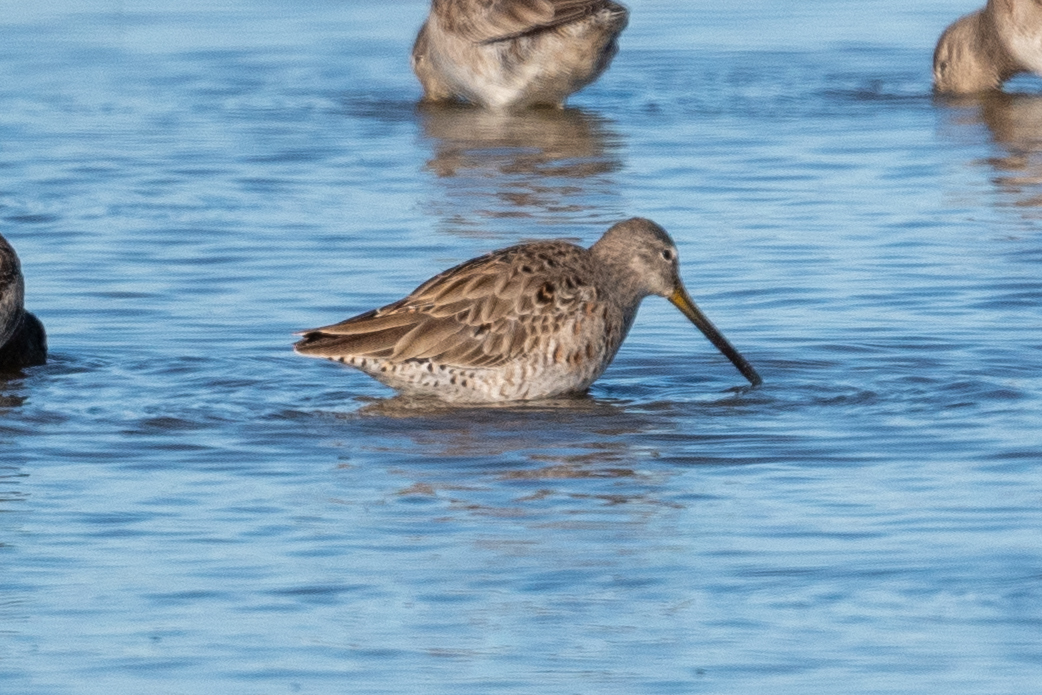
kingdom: Animalia
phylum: Chordata
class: Aves
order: Charadriiformes
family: Scolopacidae
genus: Limnodromus
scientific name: Limnodromus scolopaceus
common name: Long-billed dowitcher
